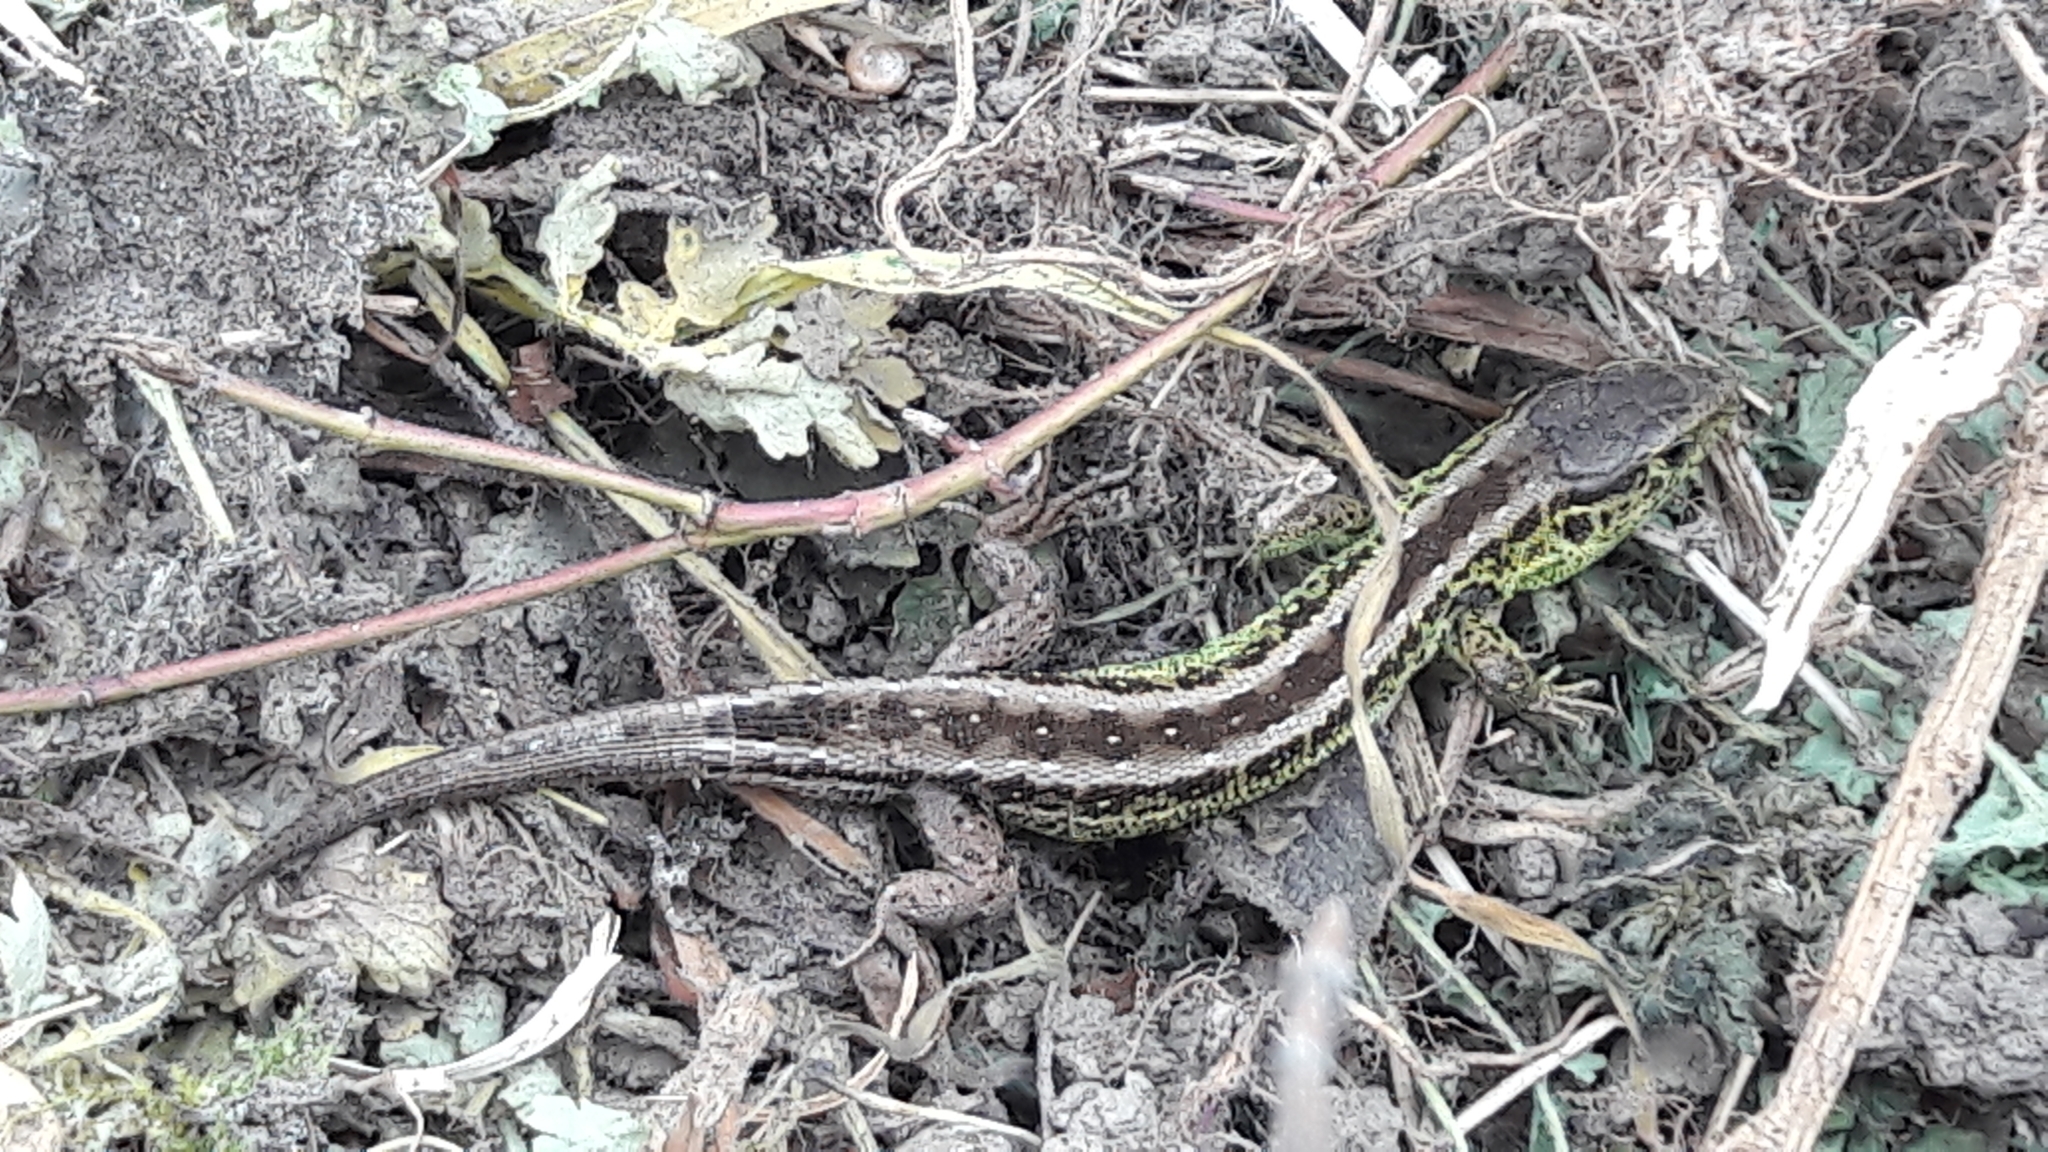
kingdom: Animalia
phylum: Chordata
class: Squamata
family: Lacertidae
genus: Lacerta
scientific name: Lacerta agilis
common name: Sand lizard
